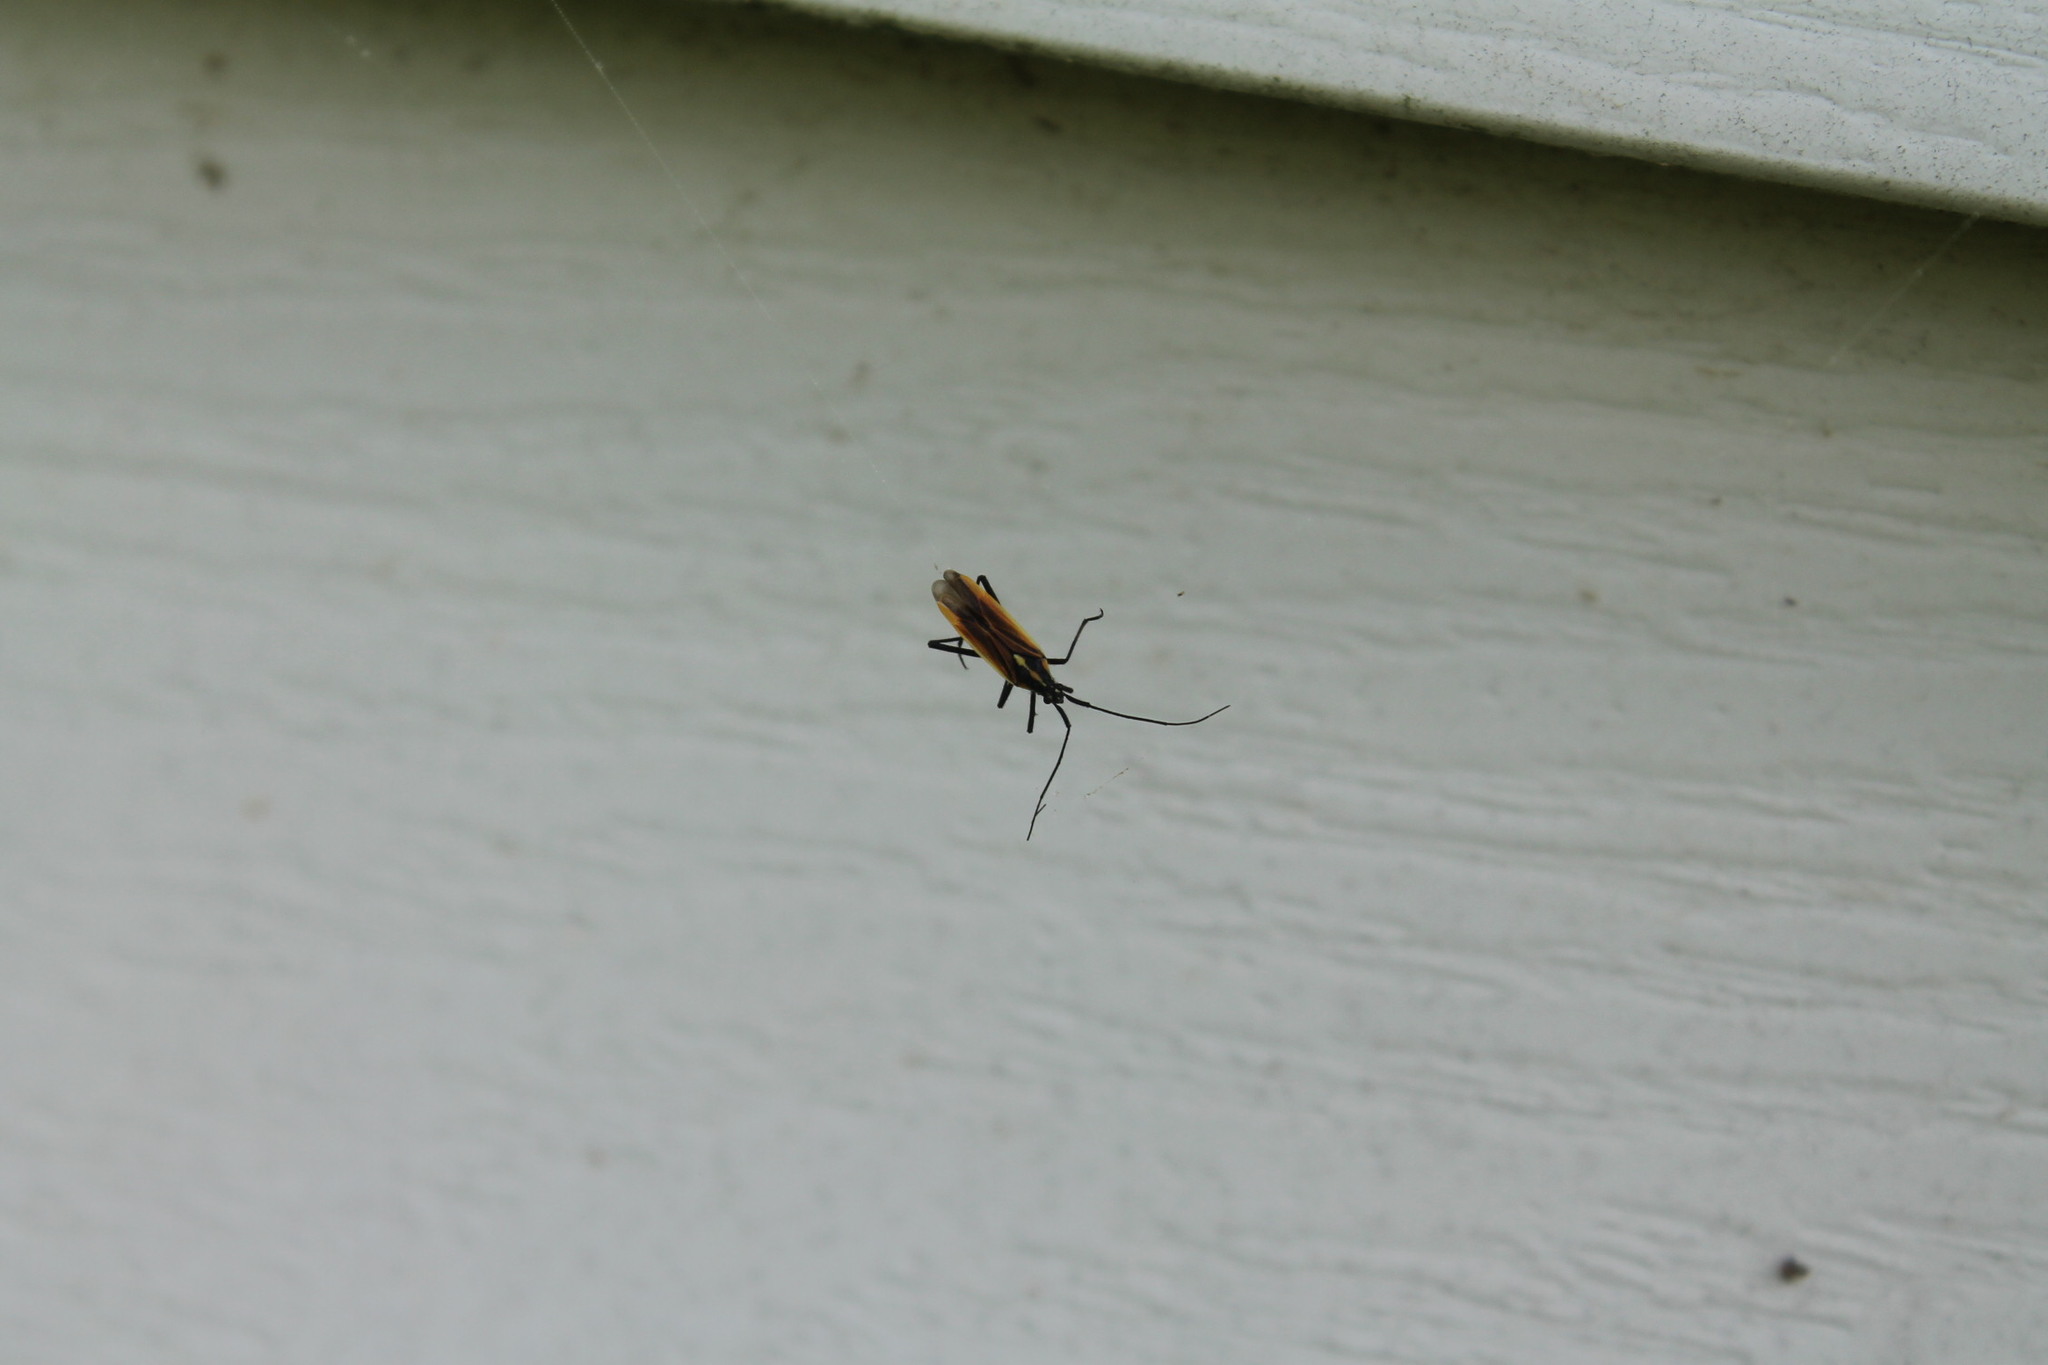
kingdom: Animalia
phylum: Arthropoda
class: Insecta
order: Hemiptera
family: Miridae
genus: Leptopterna
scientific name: Leptopterna dolabrata
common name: Meadow plant bug
